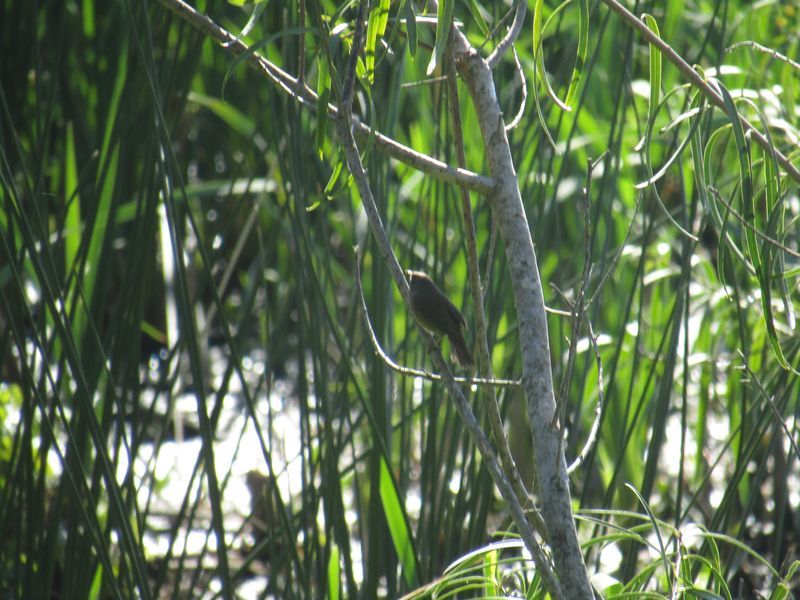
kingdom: Animalia
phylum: Chordata
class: Aves
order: Passeriformes
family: Troglodytidae
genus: Troglodytes
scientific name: Troglodytes aedon
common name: House wren
